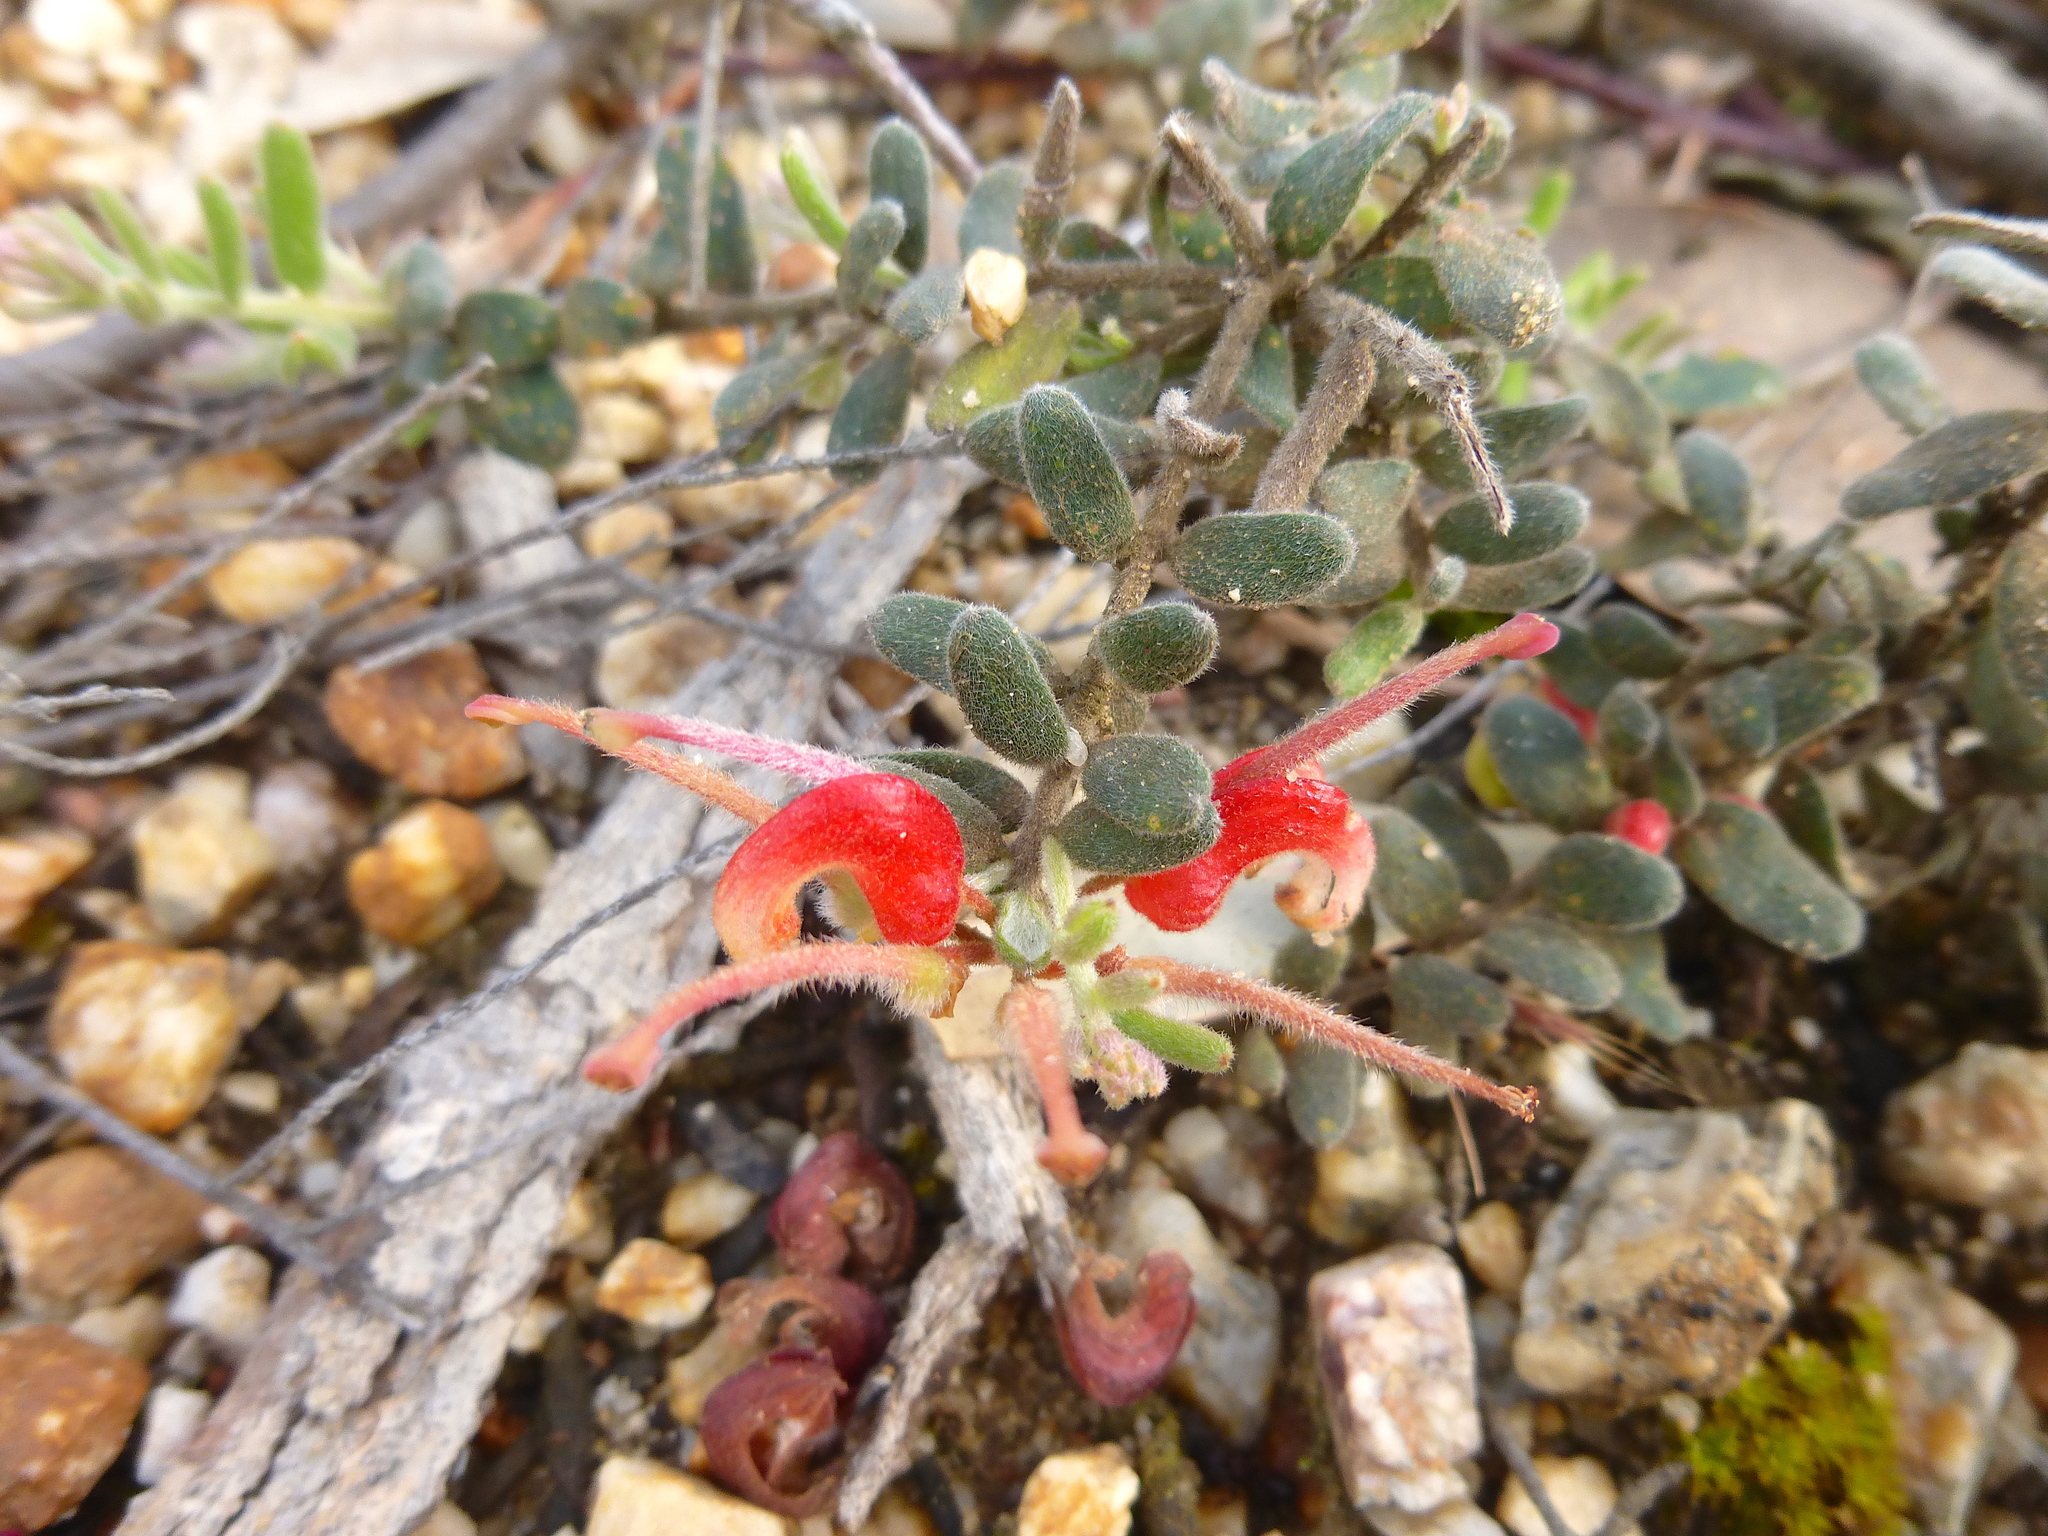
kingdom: Plantae
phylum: Tracheophyta
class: Magnoliopsida
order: Proteales
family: Proteaceae
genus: Grevillea
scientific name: Grevillea alpina
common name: Catclaws grevillea
